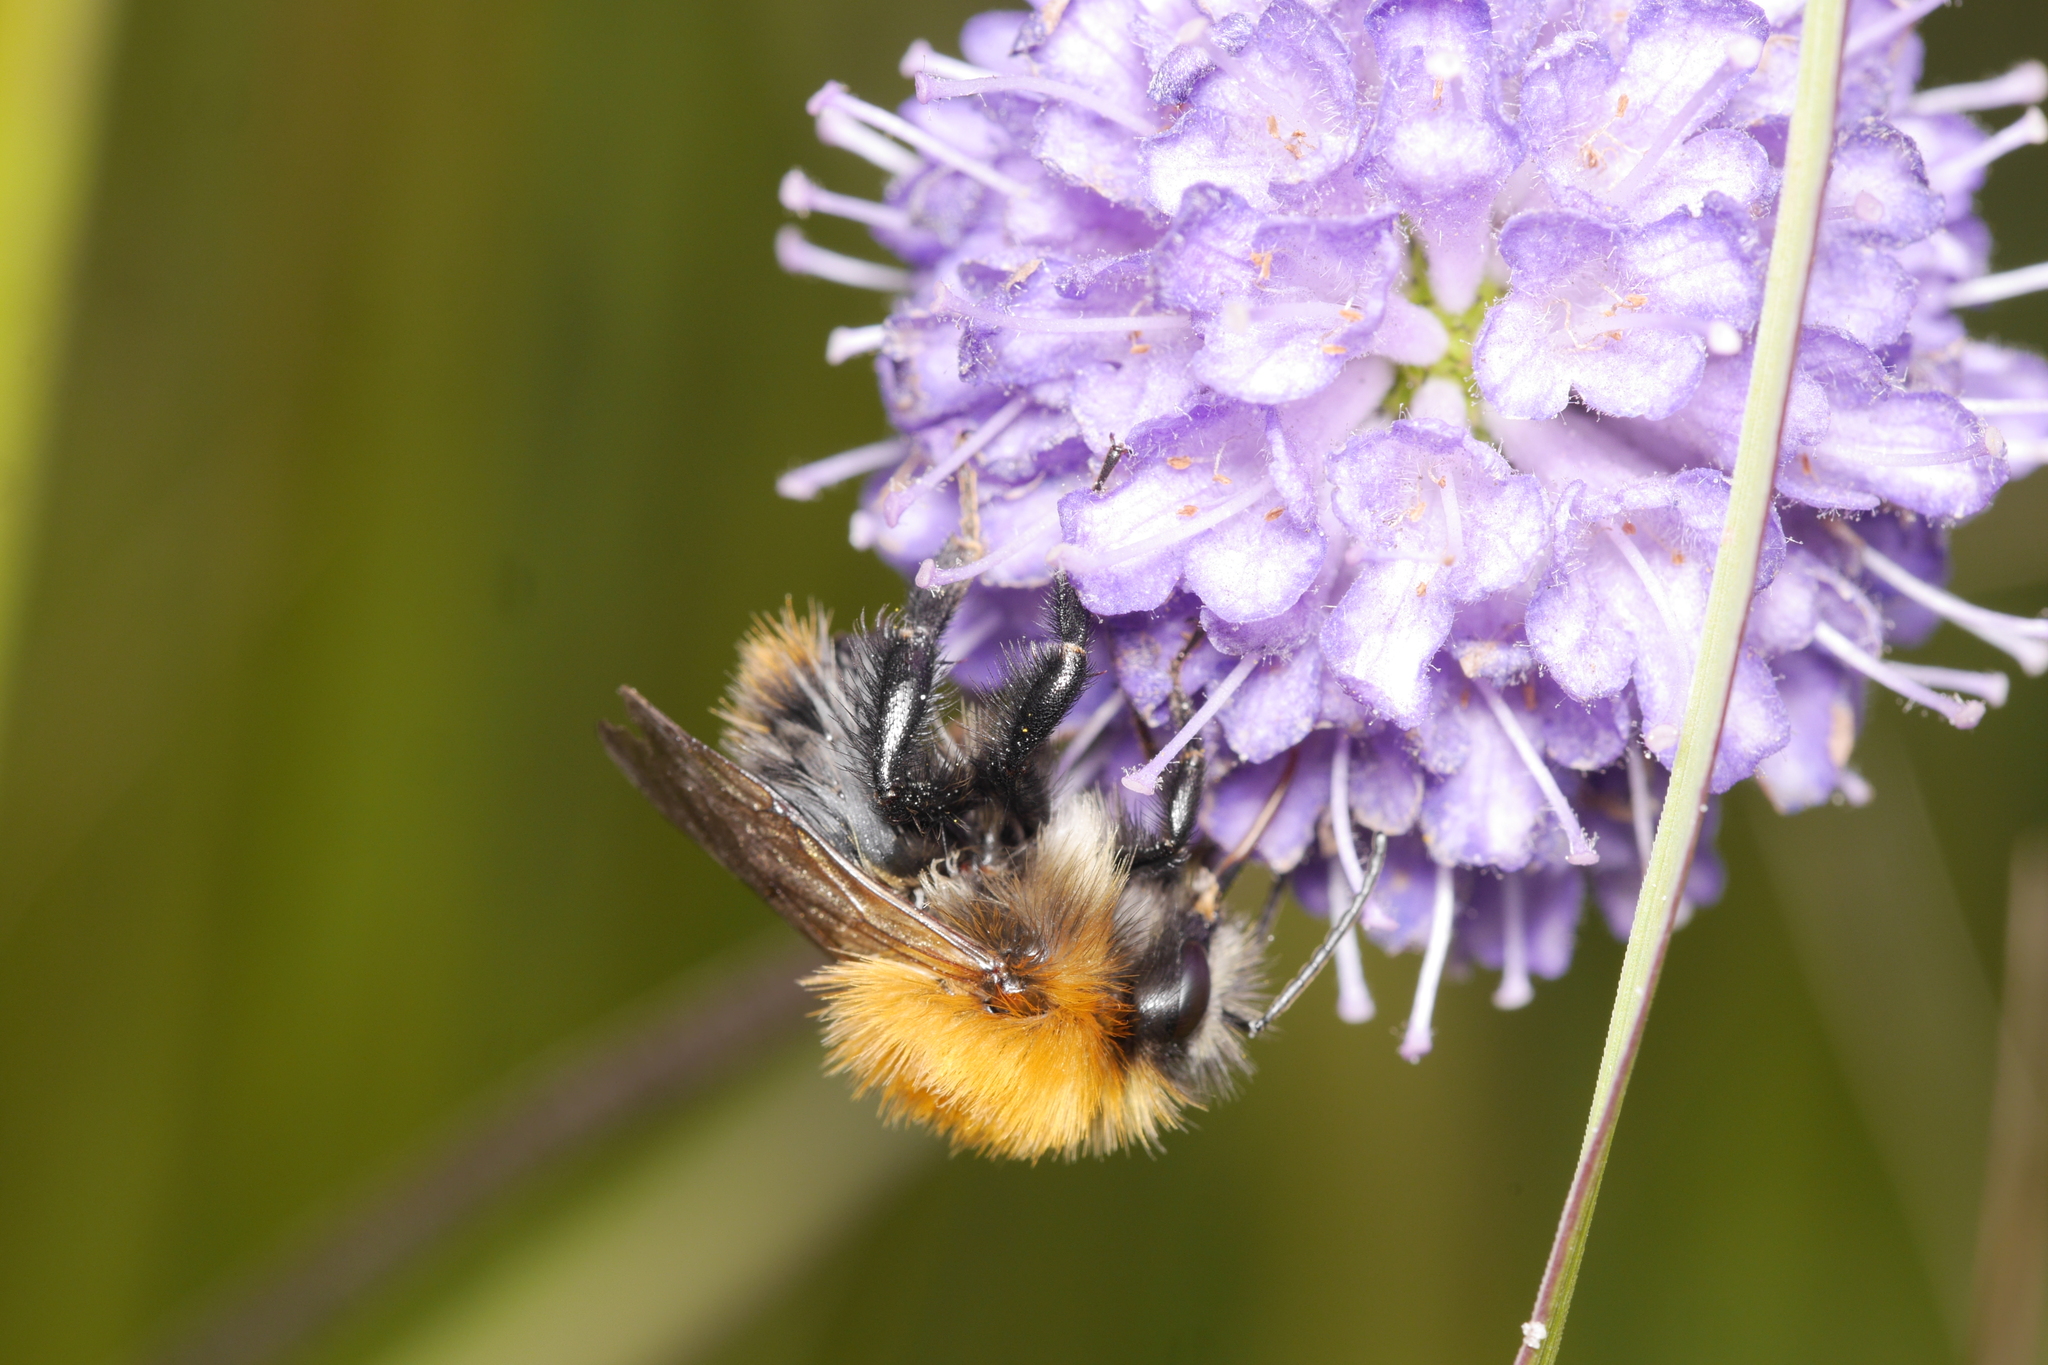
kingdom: Animalia
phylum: Arthropoda
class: Insecta
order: Hymenoptera
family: Apidae
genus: Bombus
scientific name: Bombus pascuorum
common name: Common carder bee
